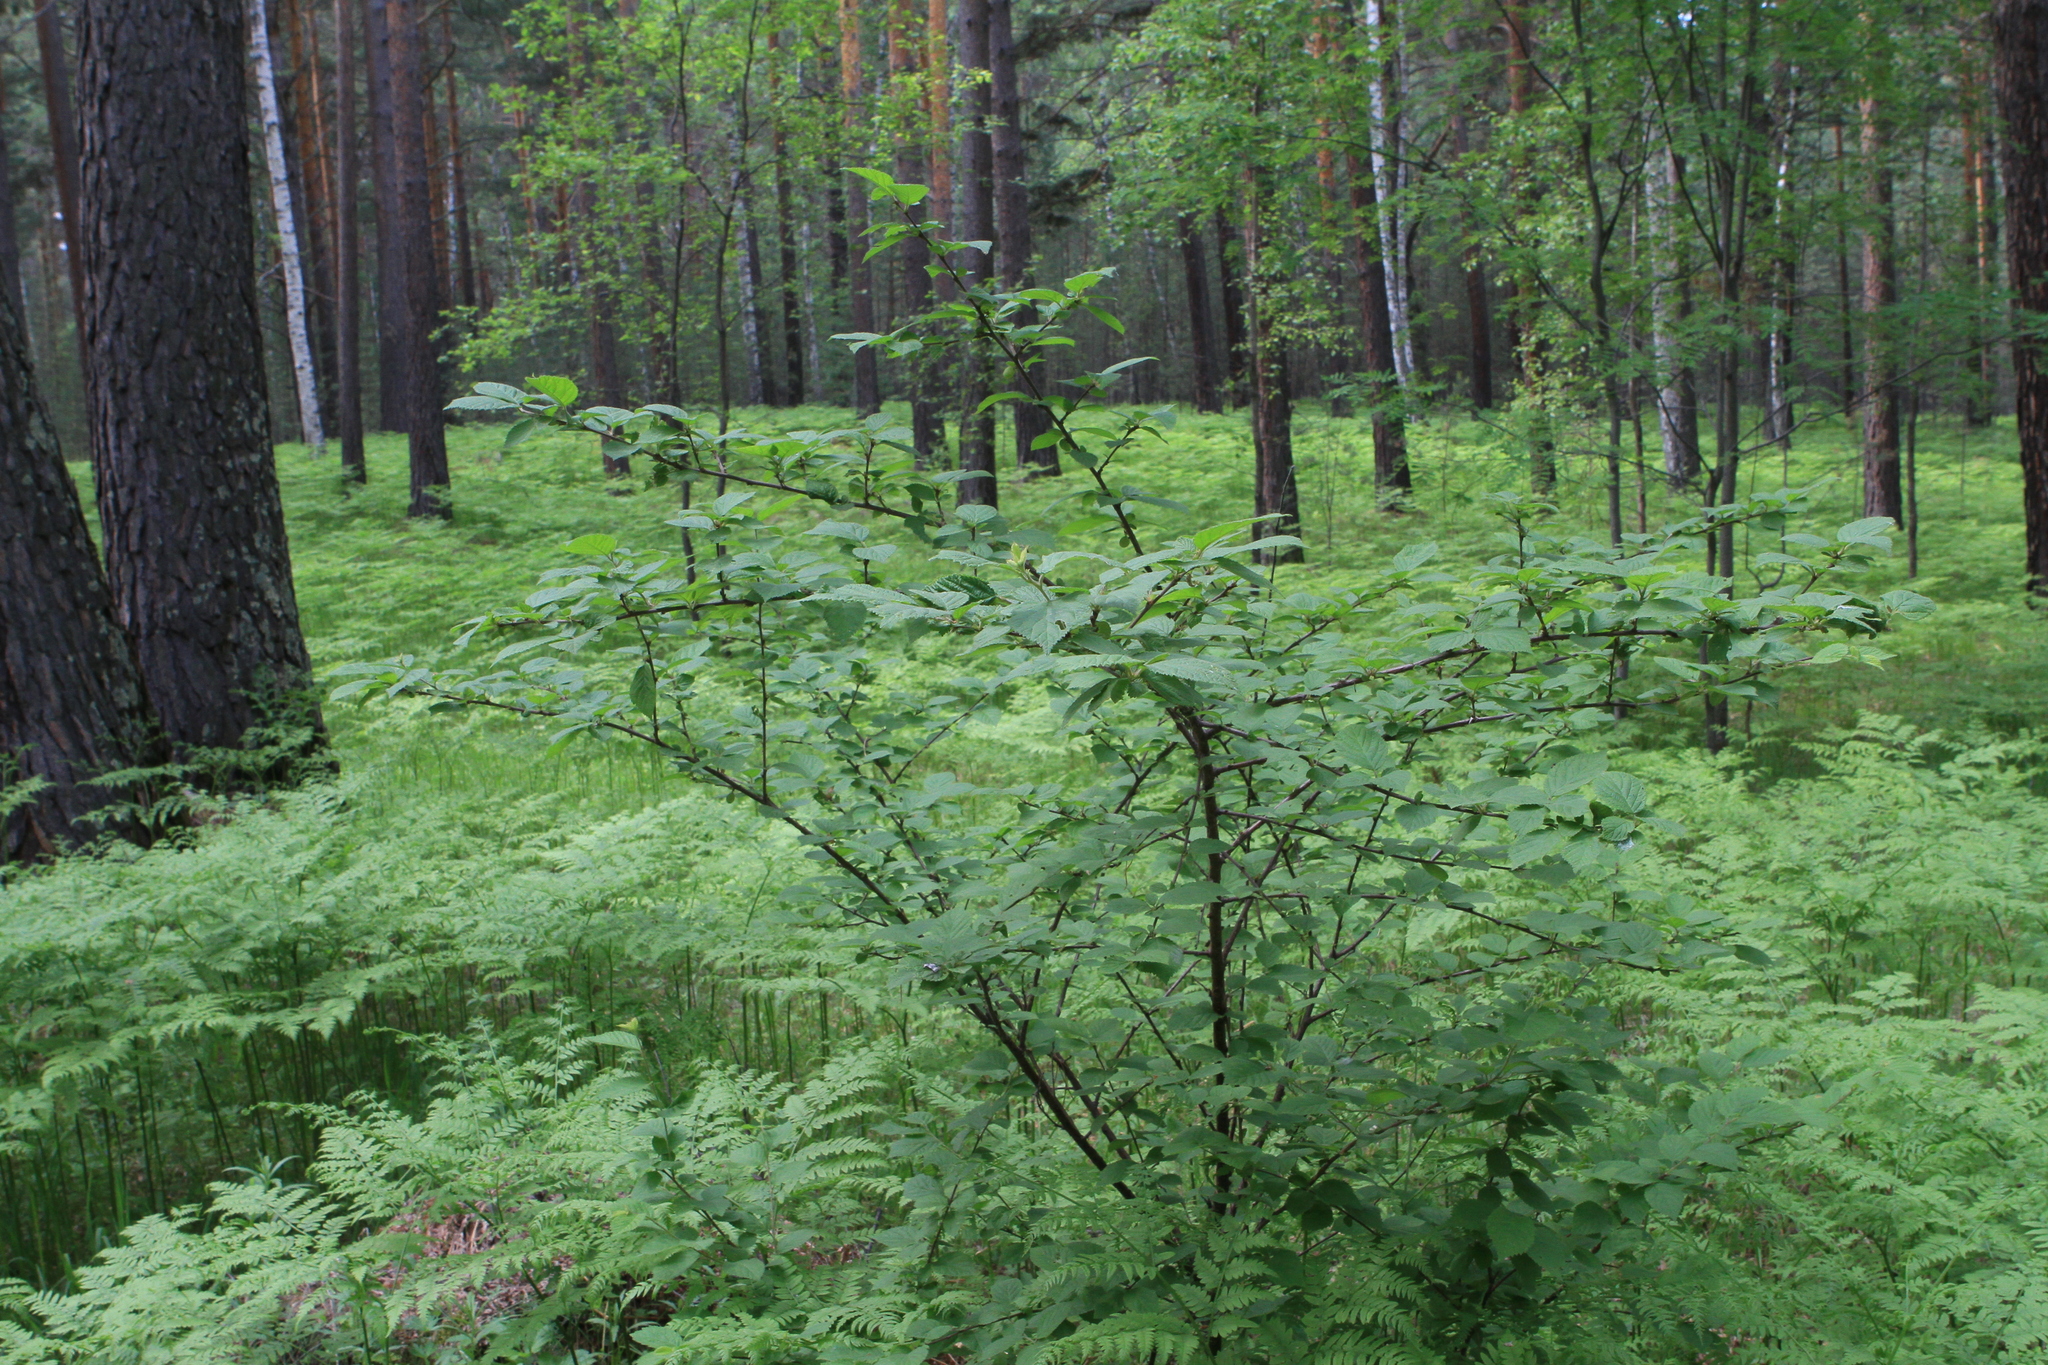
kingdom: Plantae
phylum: Tracheophyta
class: Magnoliopsida
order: Rosales
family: Rosaceae
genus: Prunus
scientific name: Prunus tomentosa
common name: Nanking cherry
